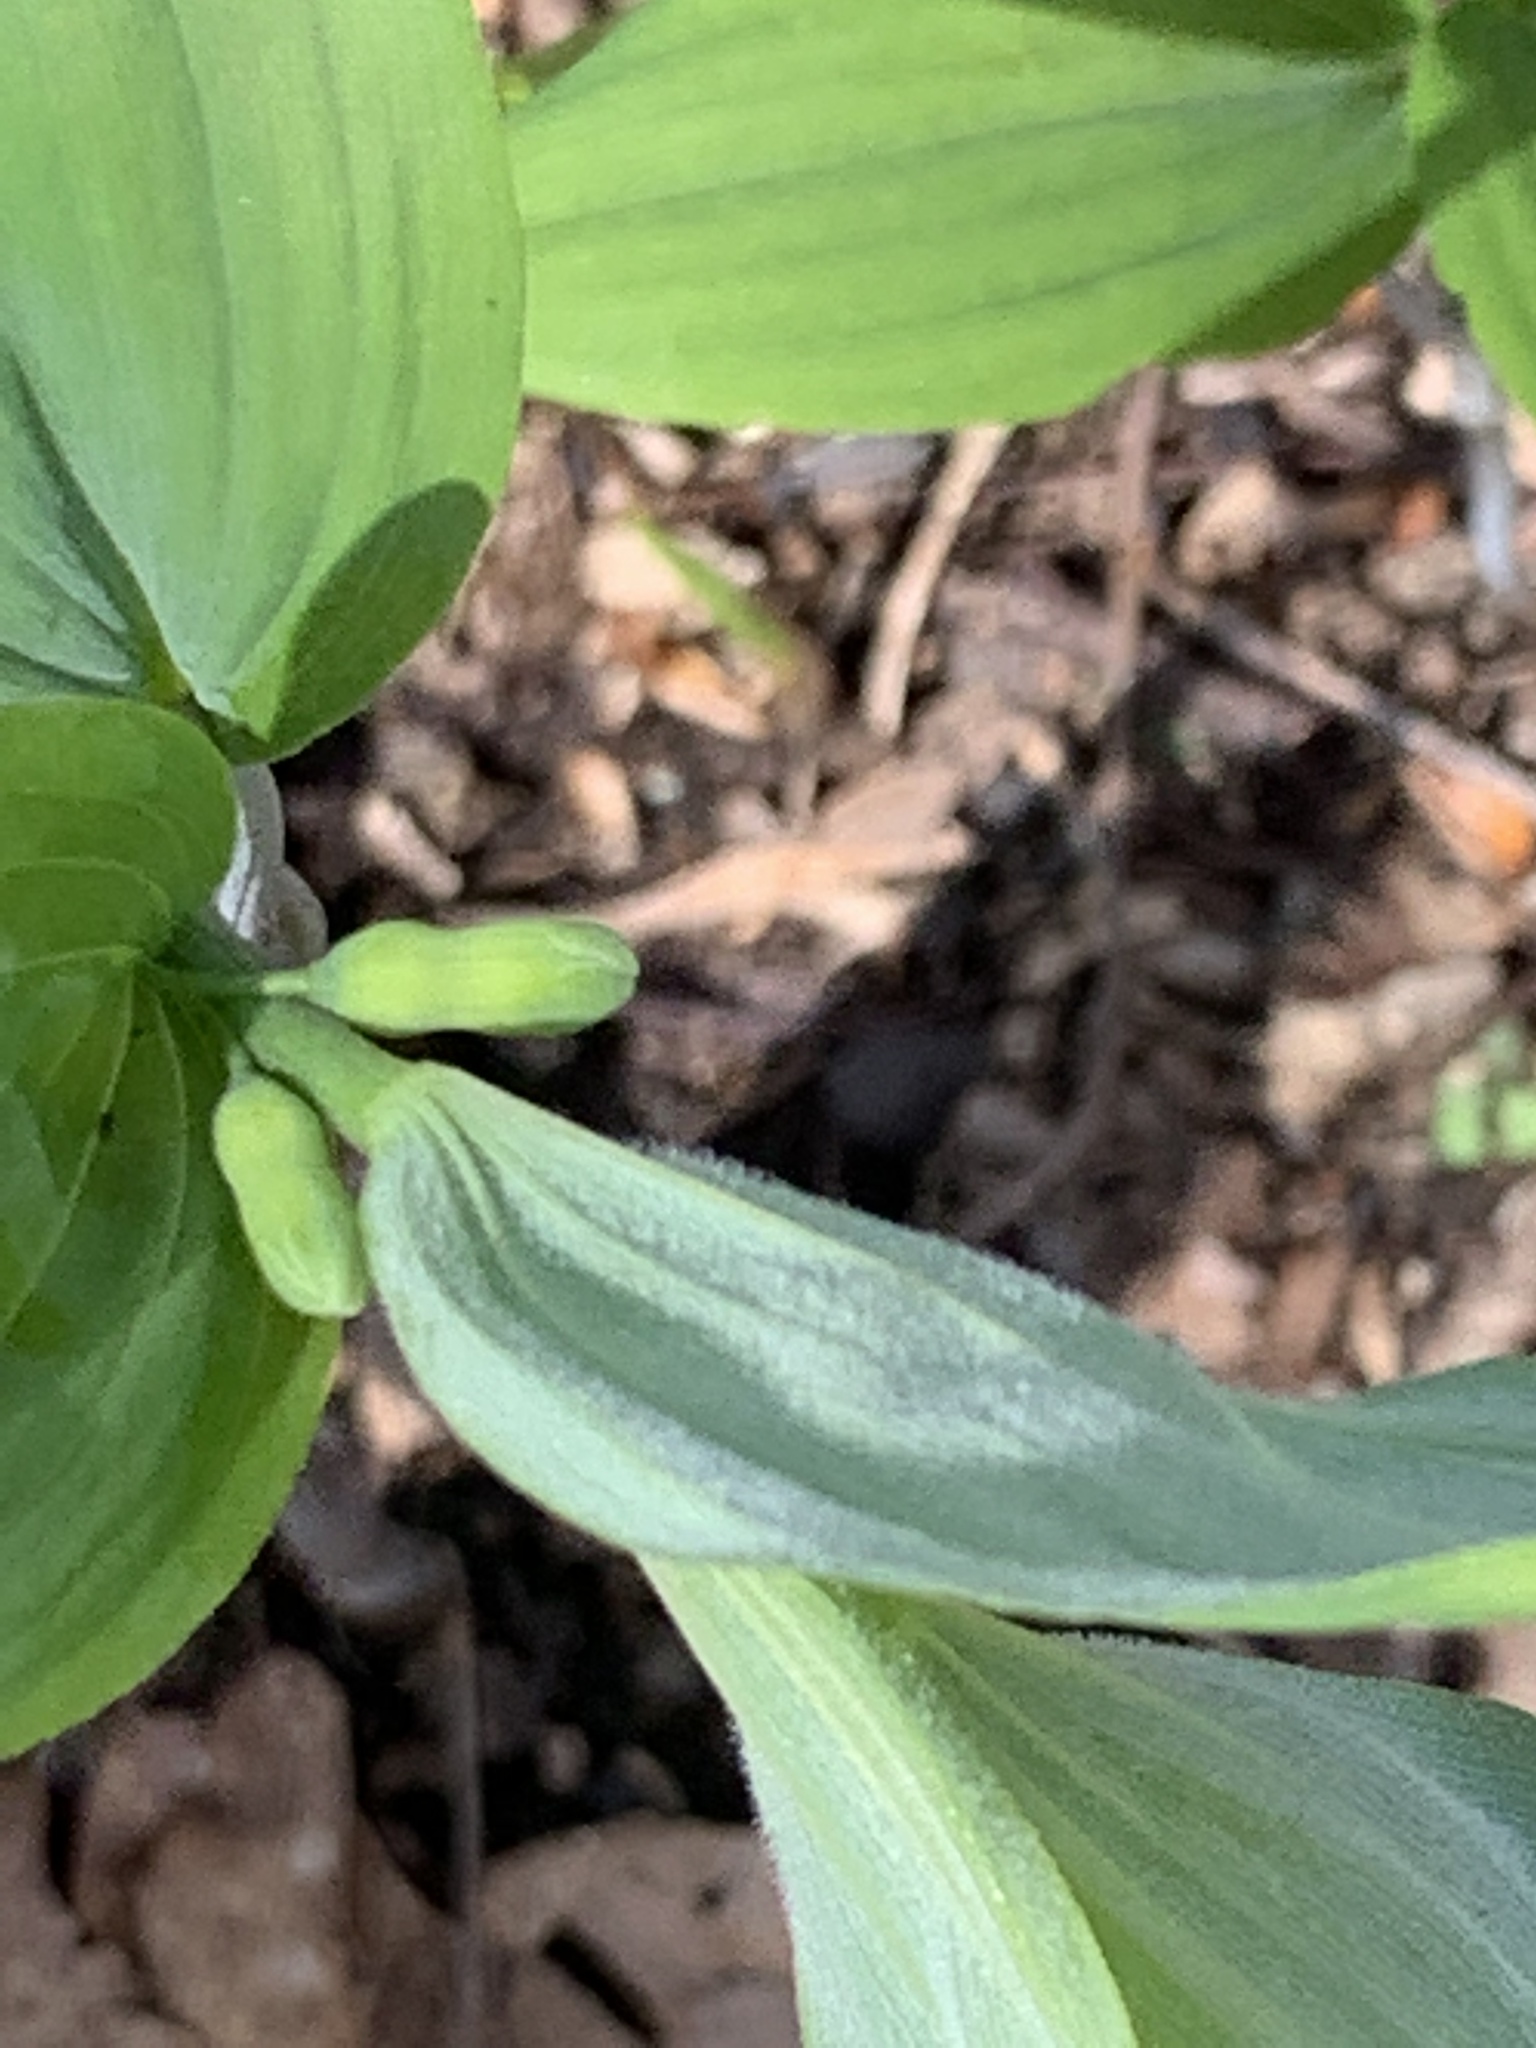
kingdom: Plantae
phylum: Tracheophyta
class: Liliopsida
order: Asparagales
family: Asparagaceae
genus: Polygonatum
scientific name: Polygonatum pubescens
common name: Downy solomon's seal
